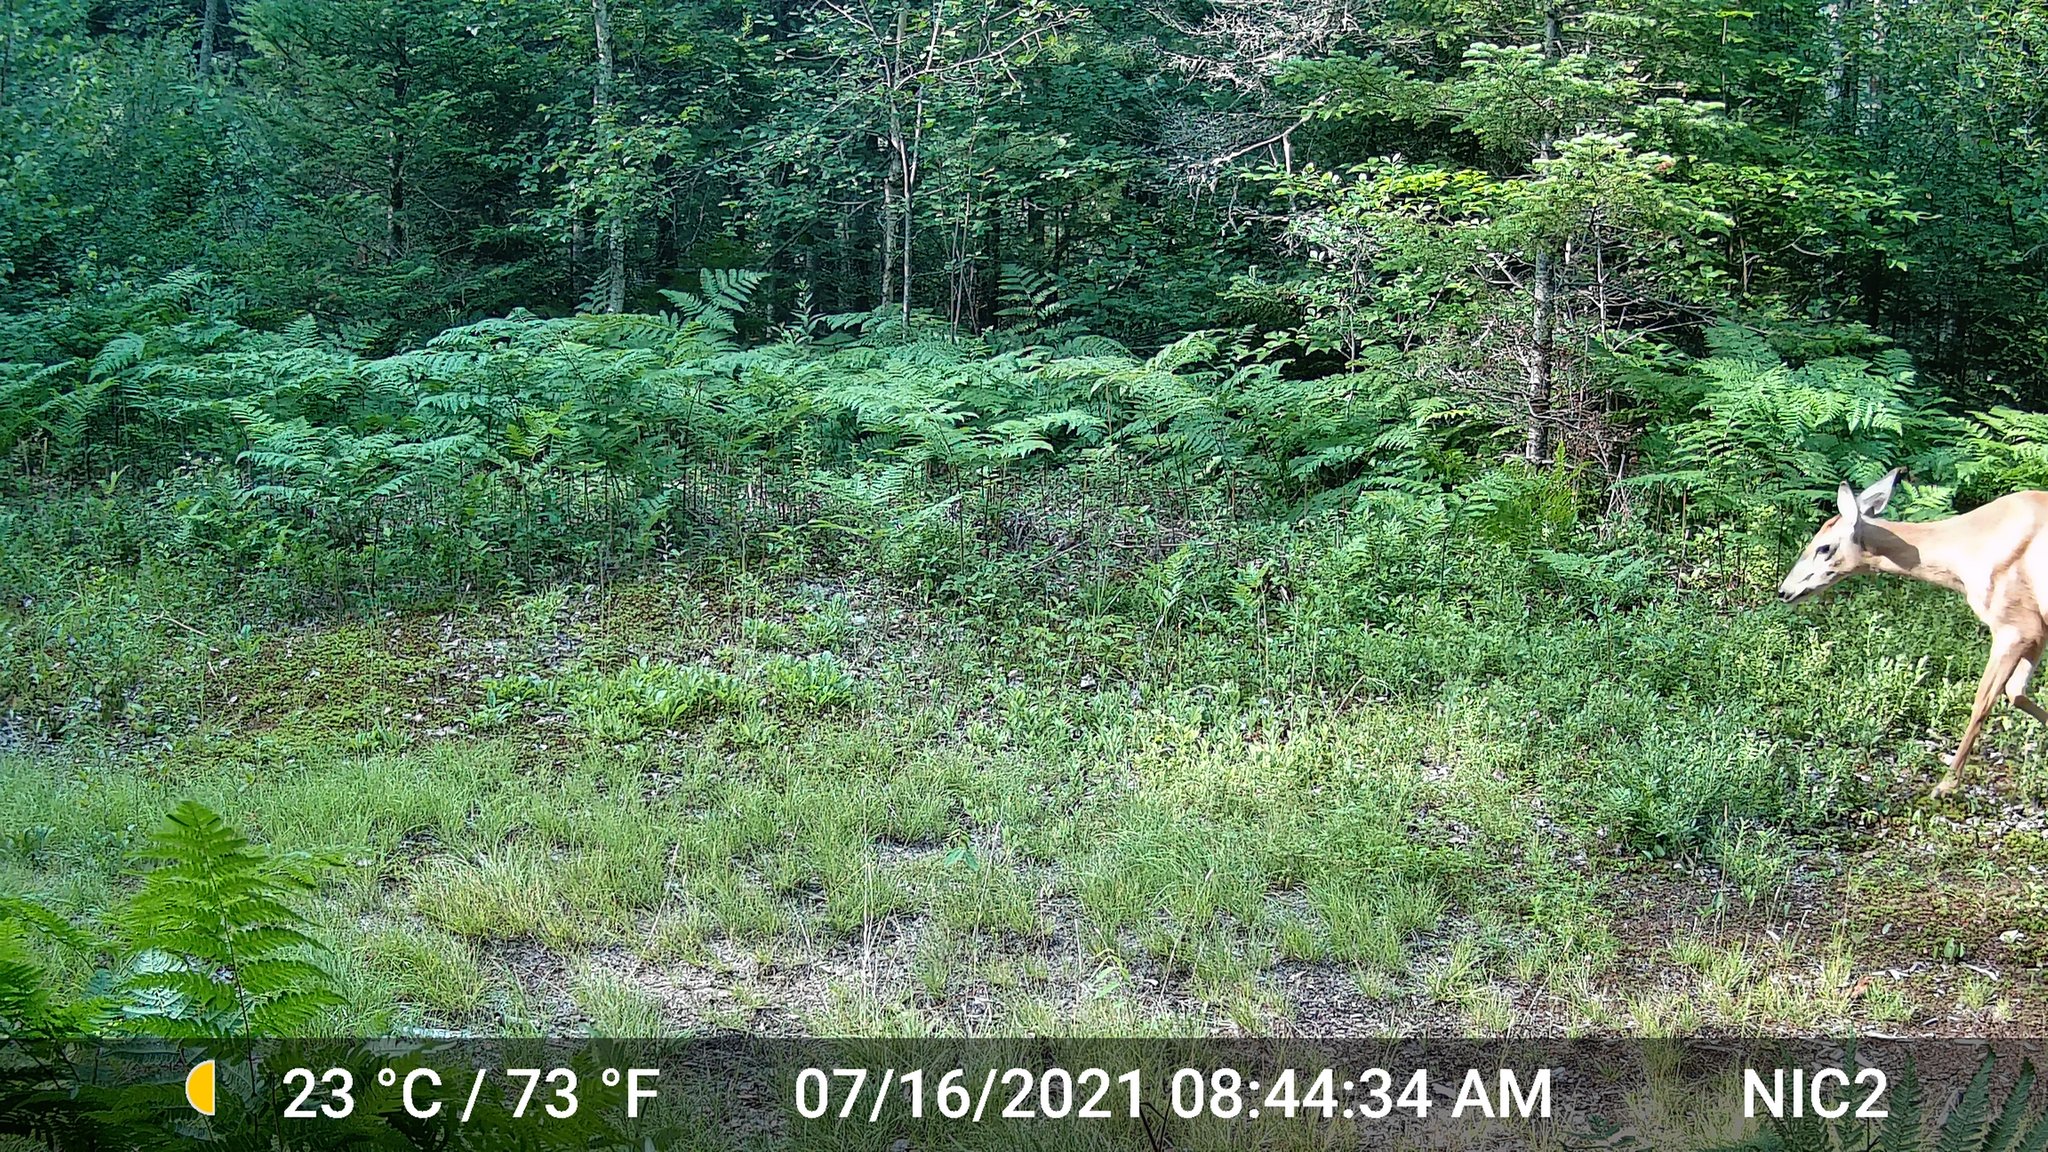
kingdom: Animalia
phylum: Chordata
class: Mammalia
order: Artiodactyla
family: Cervidae
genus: Odocoileus
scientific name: Odocoileus virginianus
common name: White-tailed deer
